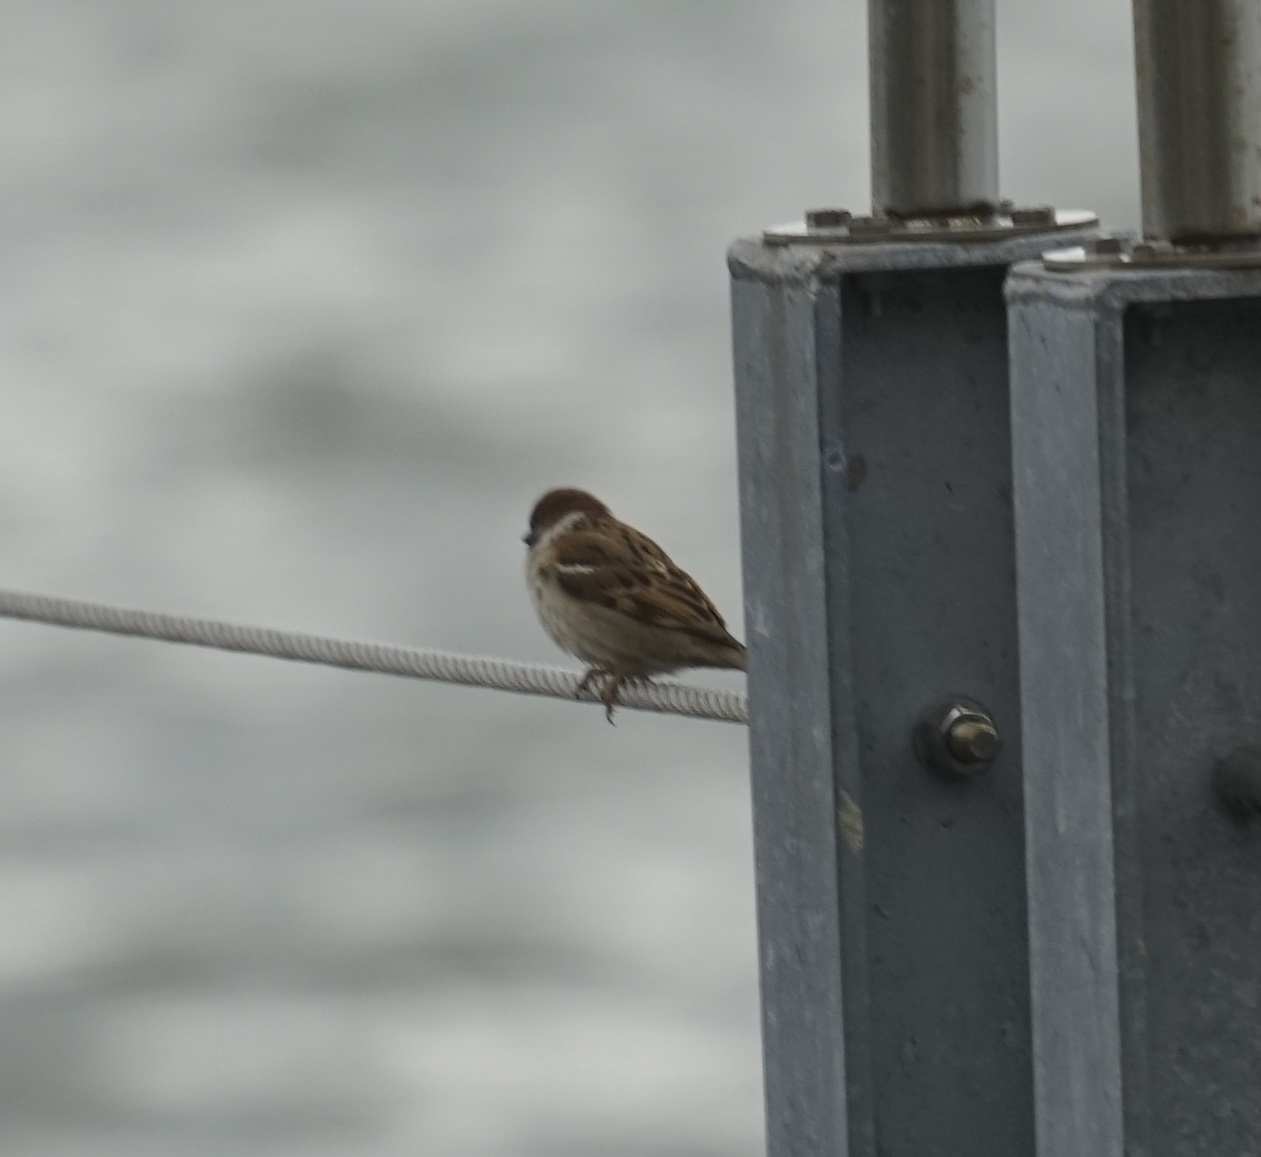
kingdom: Animalia
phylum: Chordata
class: Aves
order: Passeriformes
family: Passeridae
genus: Passer
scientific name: Passer montanus
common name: Eurasian tree sparrow
